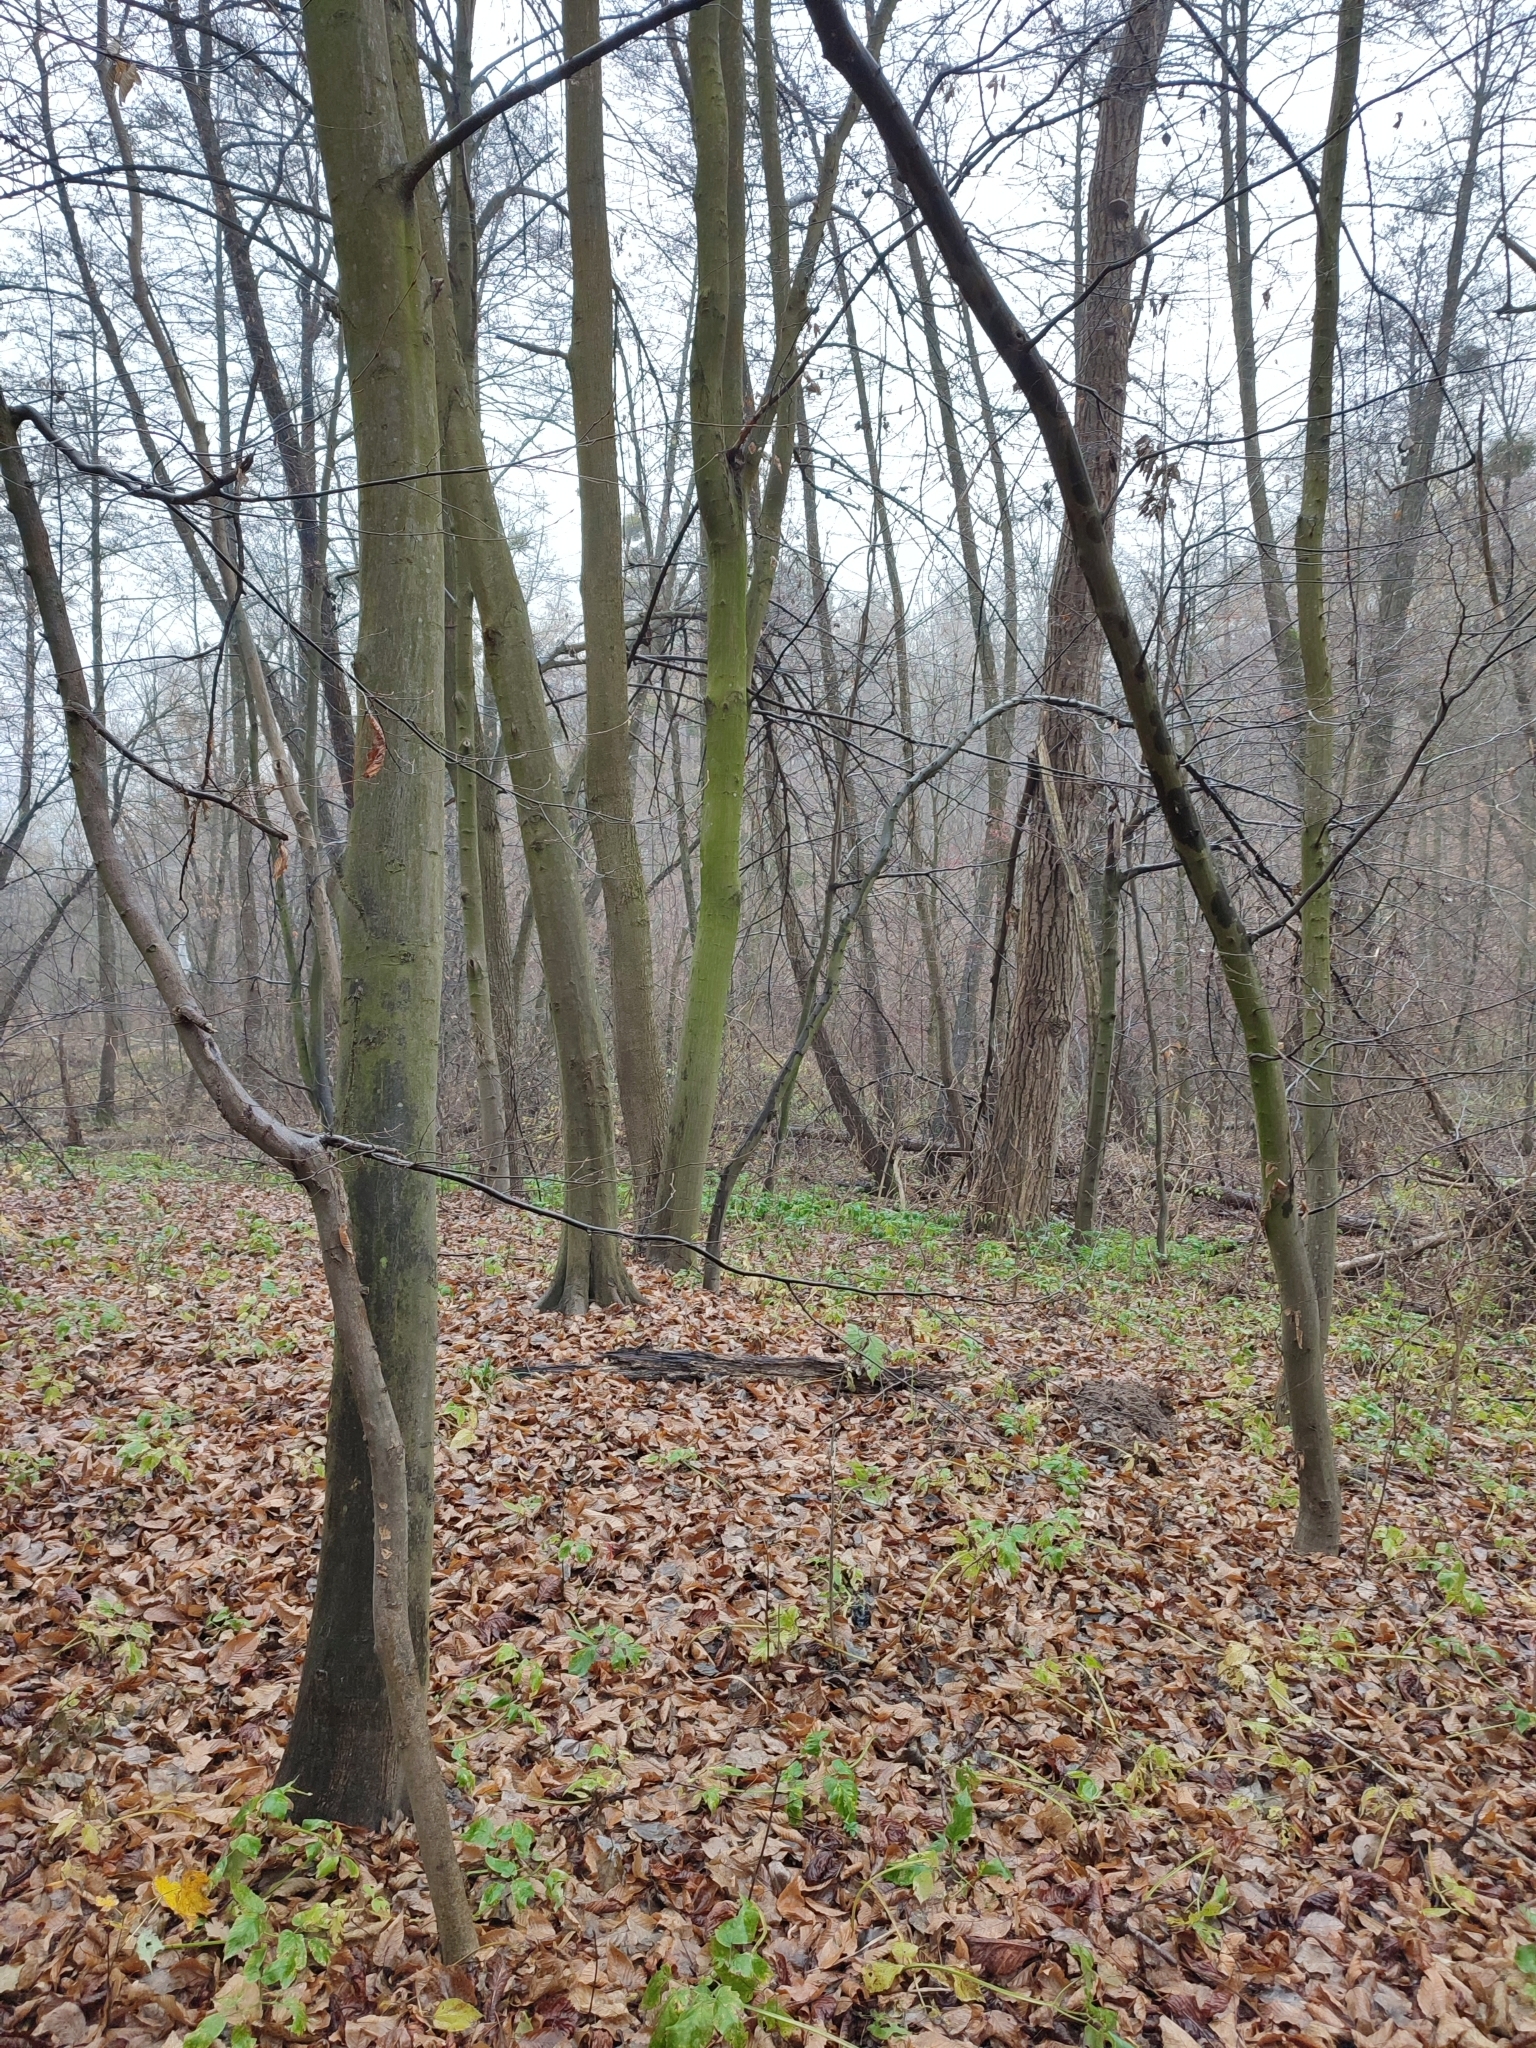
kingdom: Plantae
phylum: Tracheophyta
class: Magnoliopsida
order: Fagales
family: Betulaceae
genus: Carpinus
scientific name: Carpinus betulus
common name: Hornbeam
